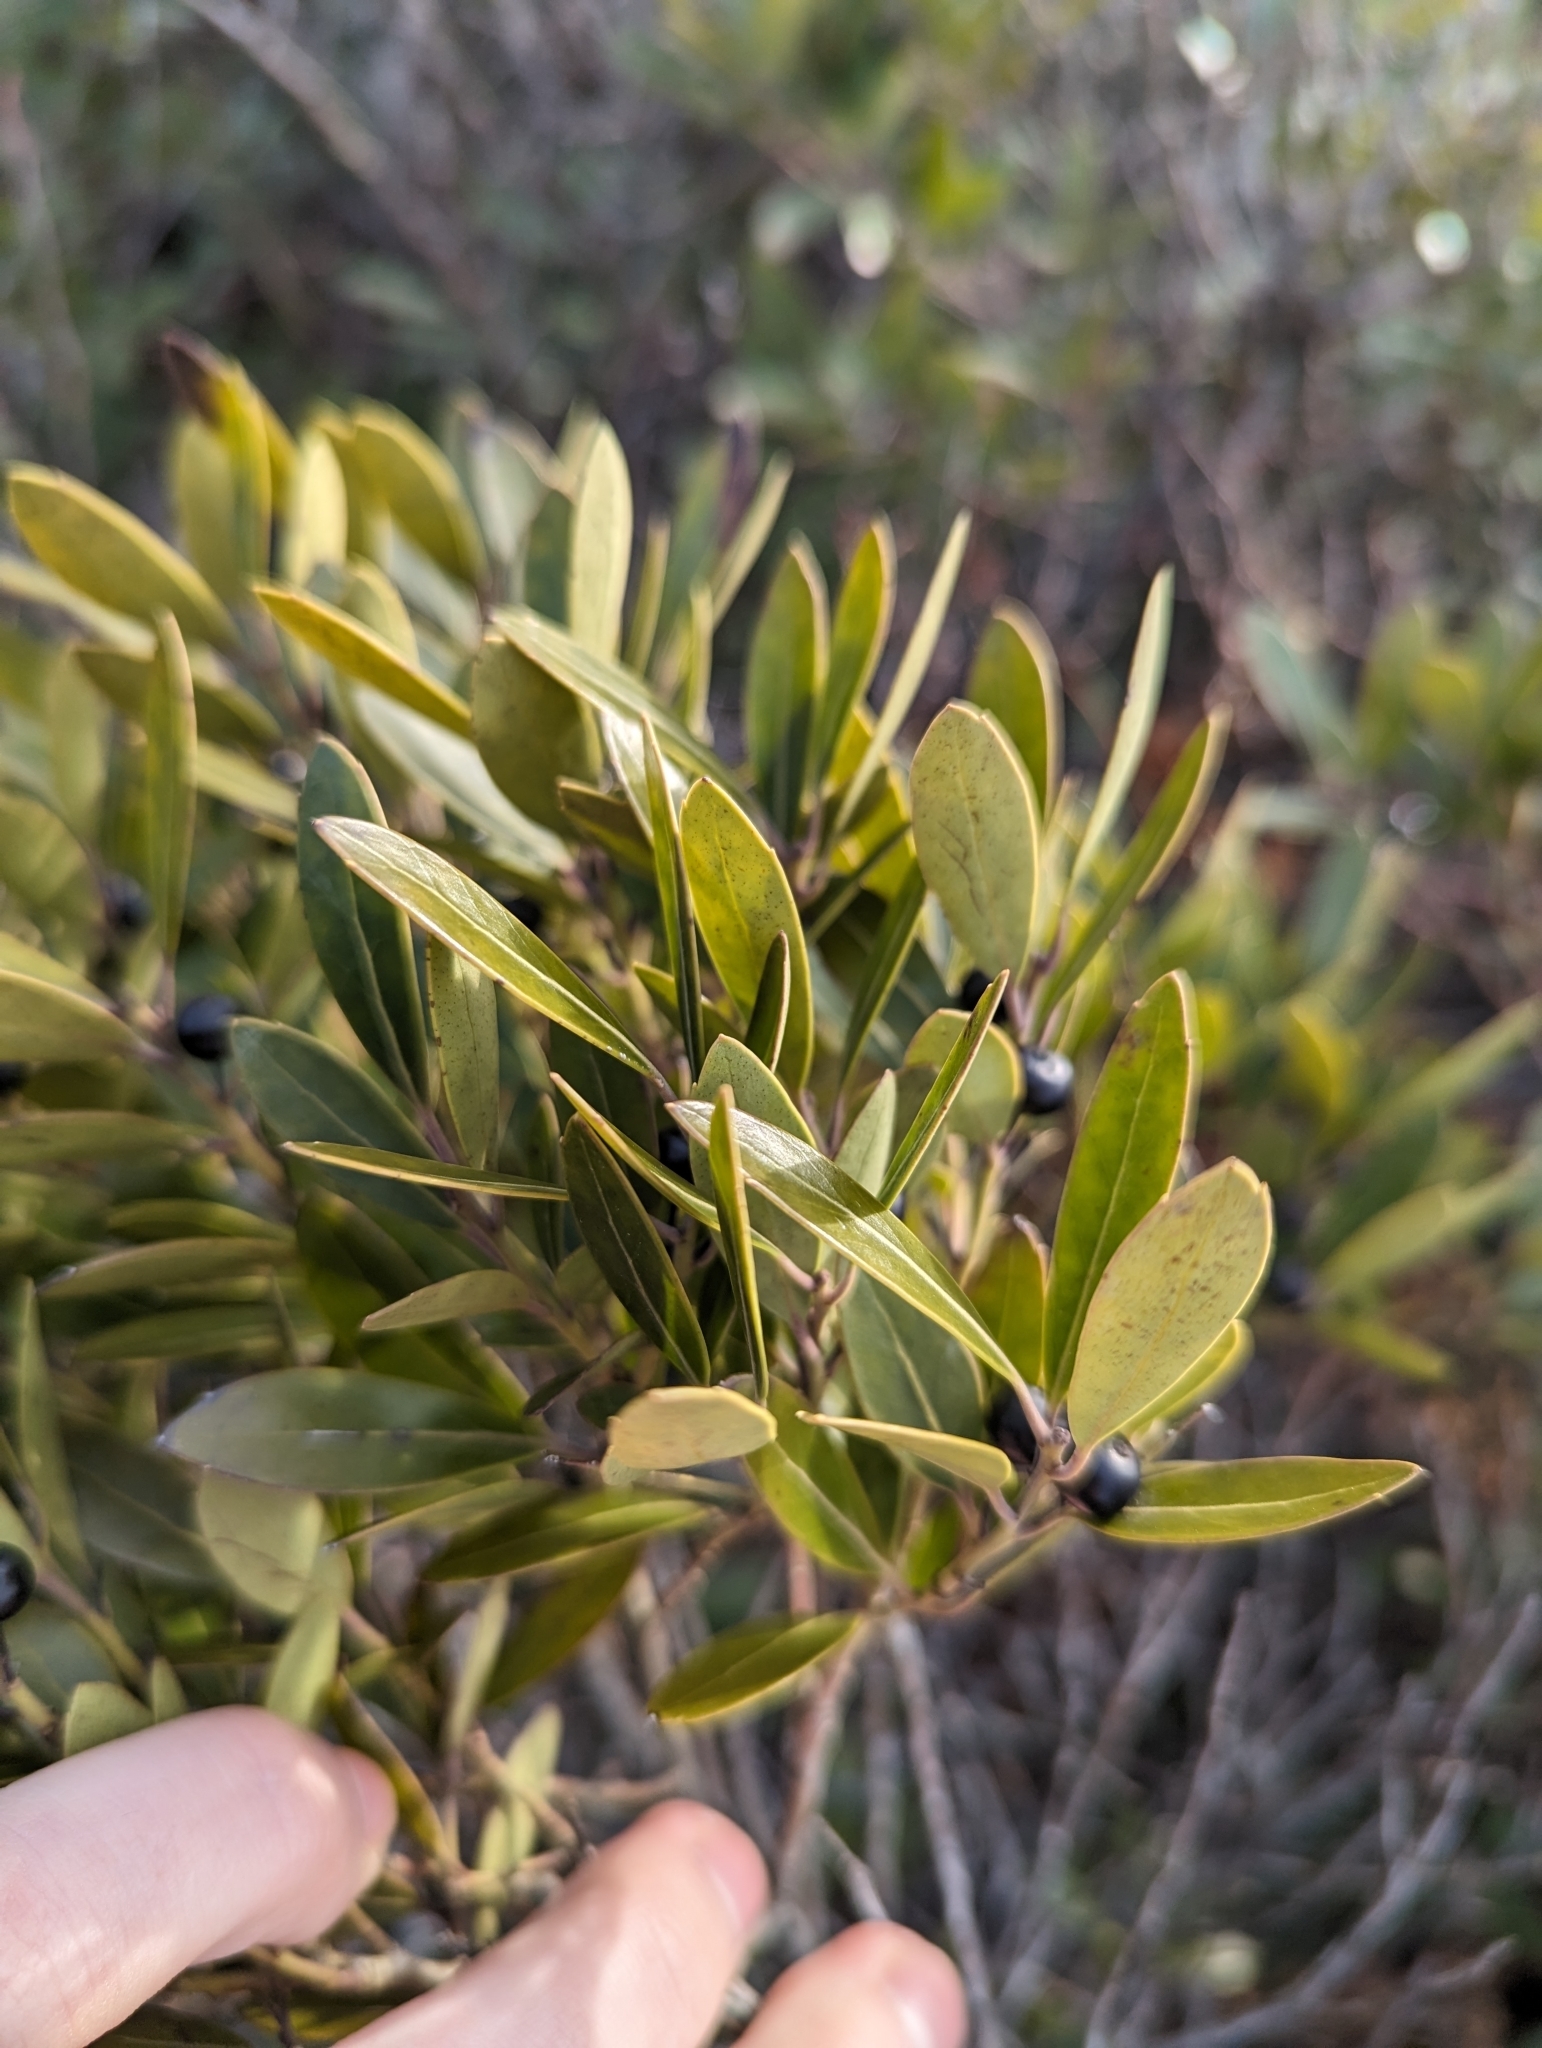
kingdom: Plantae
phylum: Tracheophyta
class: Magnoliopsida
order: Aquifoliales
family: Aquifoliaceae
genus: Ilex
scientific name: Ilex glabra
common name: Bitter gallberry
